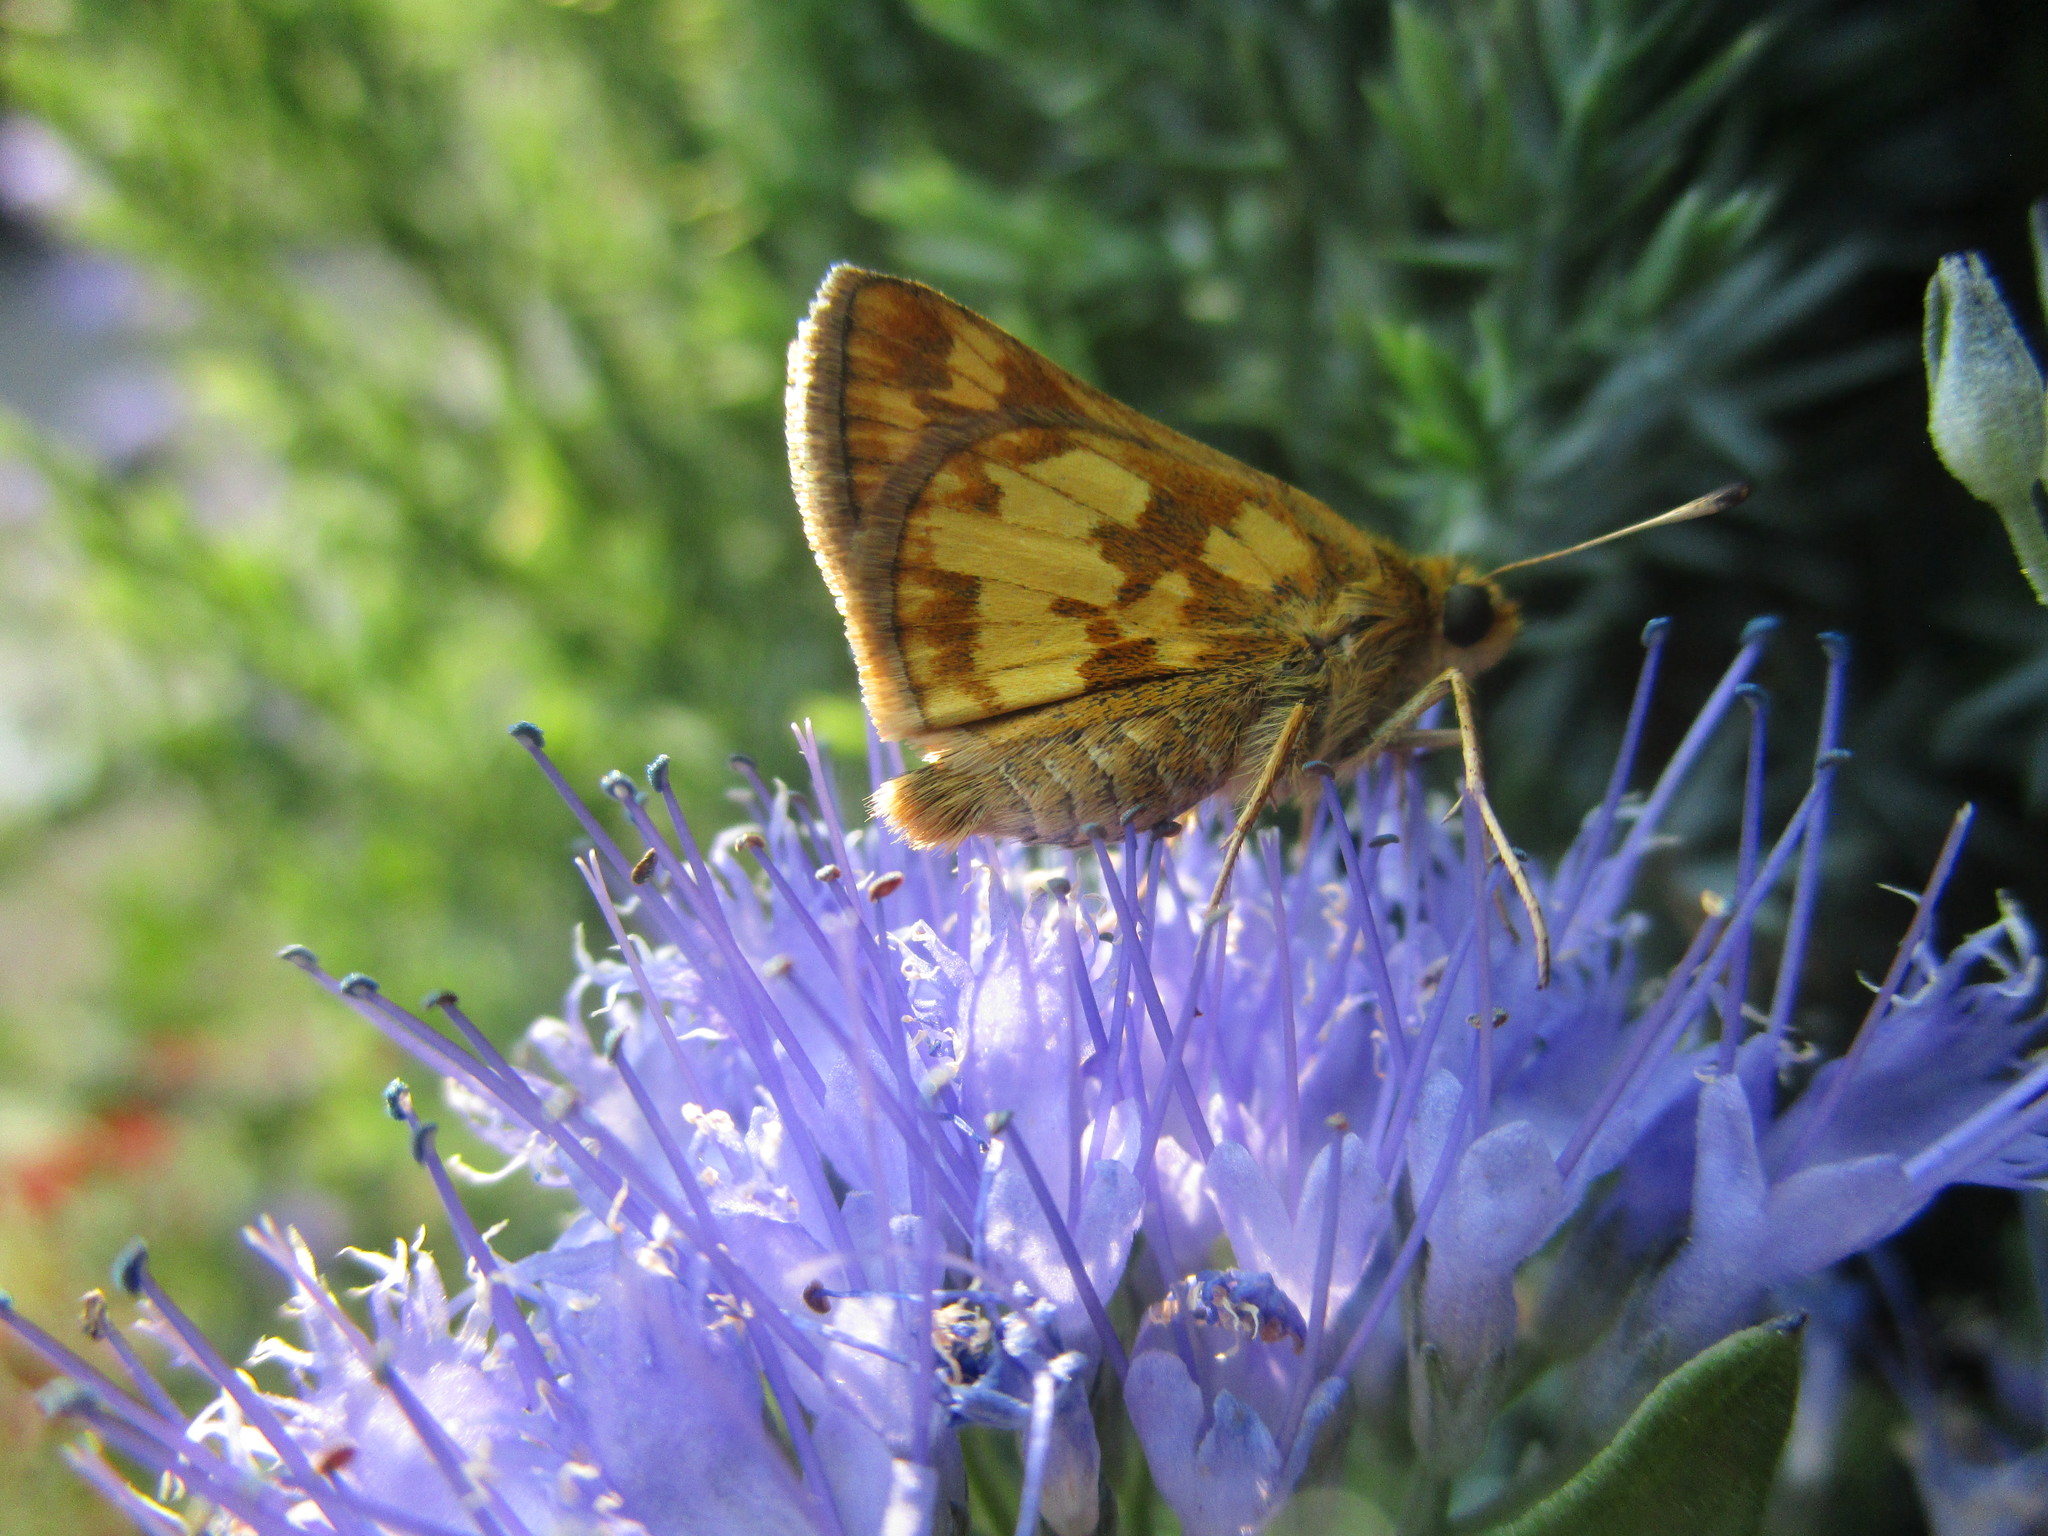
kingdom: Animalia
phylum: Arthropoda
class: Insecta
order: Lepidoptera
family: Hesperiidae
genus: Polites
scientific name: Polites coras
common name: Peck's skipper
